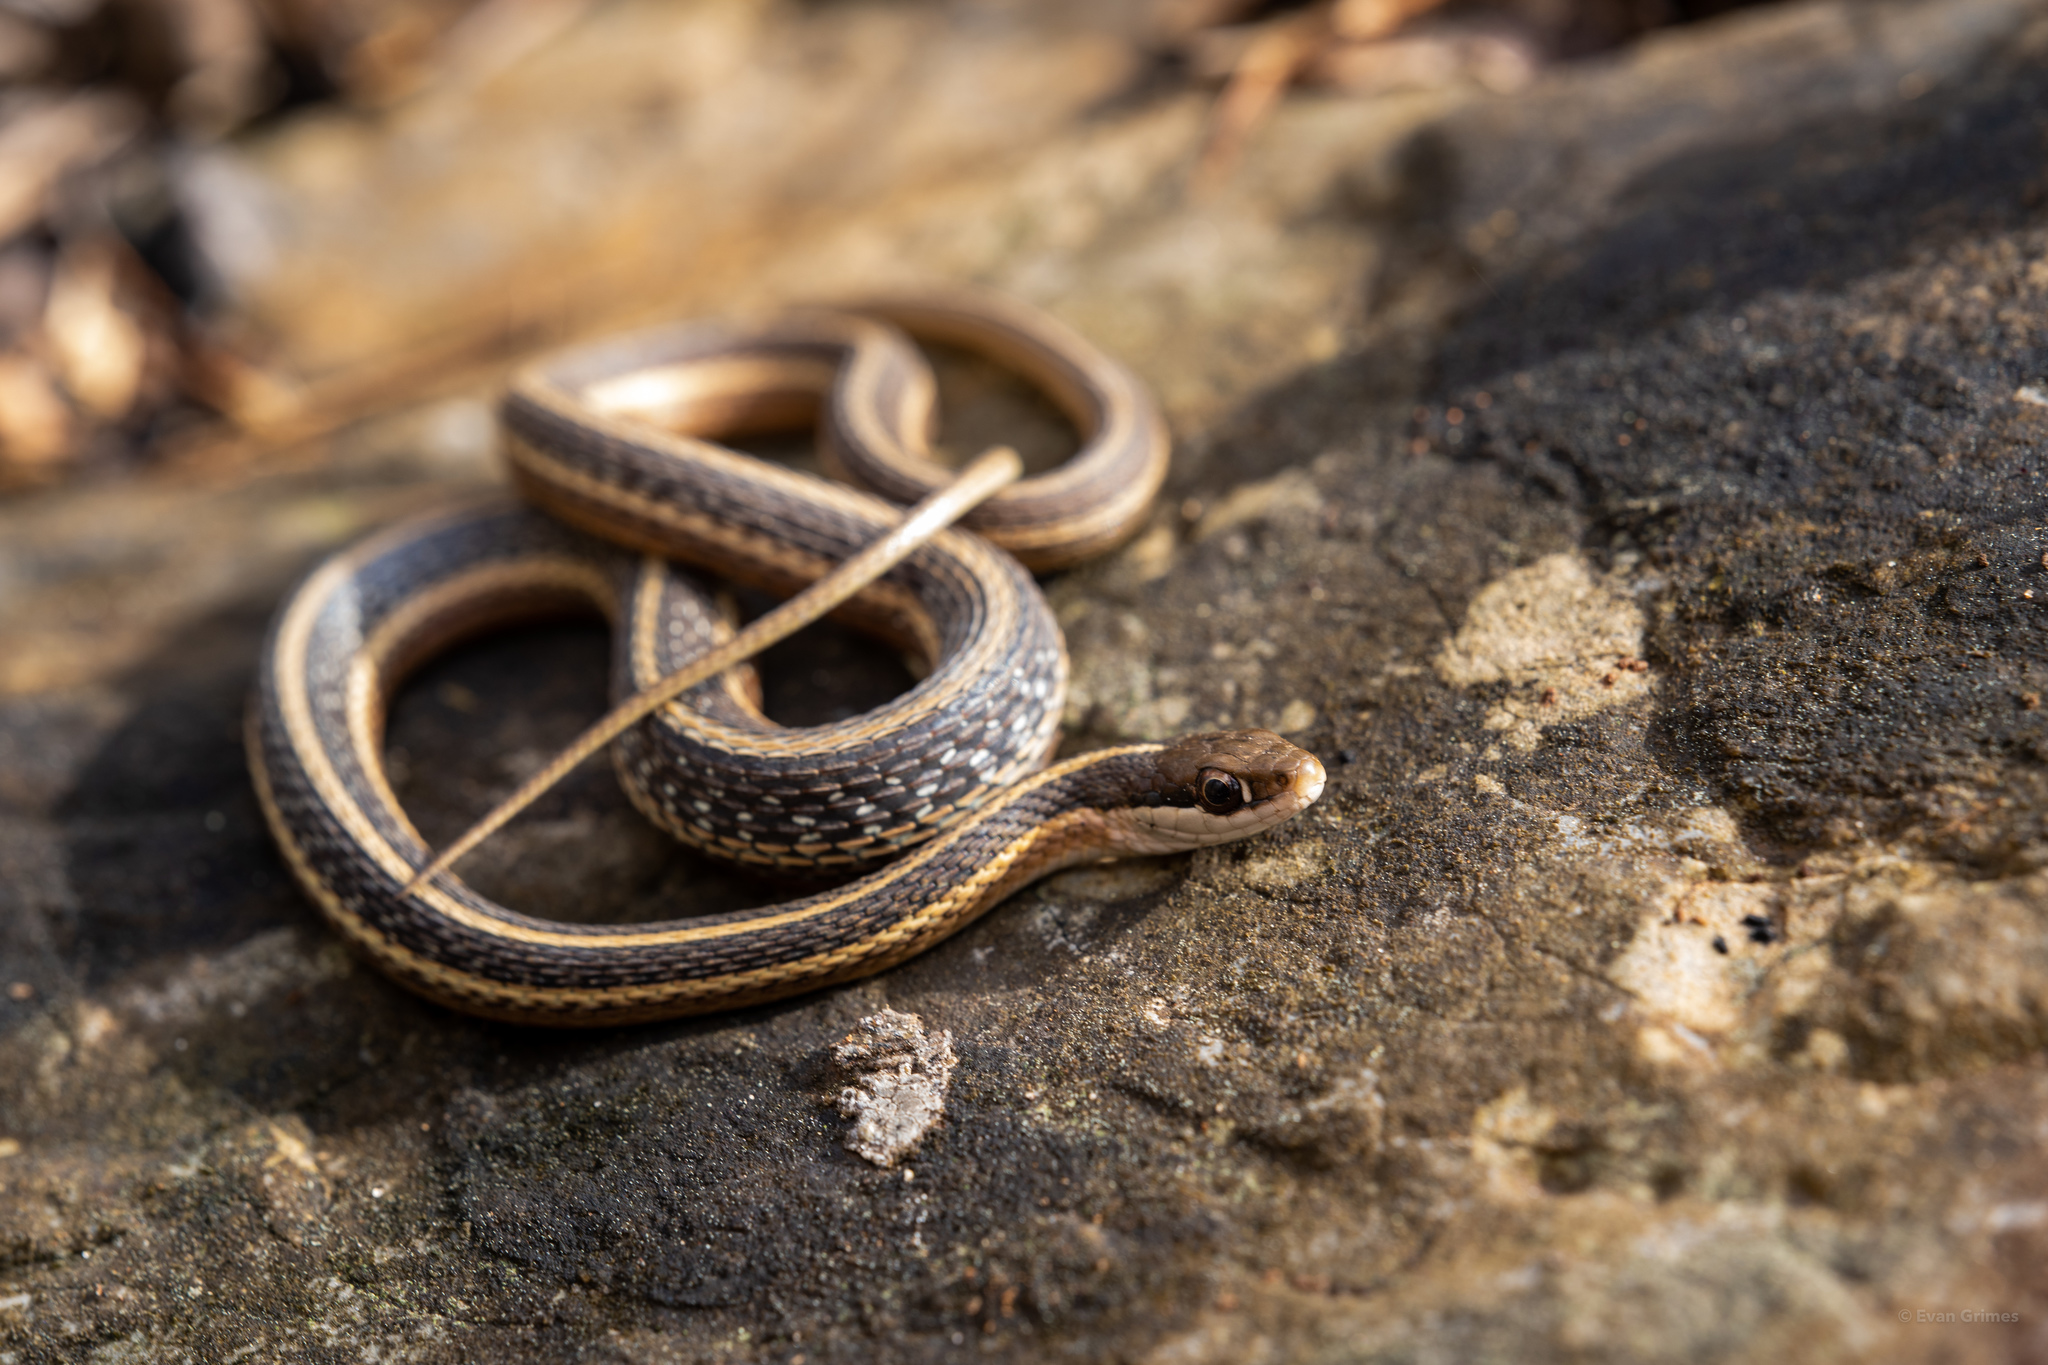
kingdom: Animalia
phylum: Chordata
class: Squamata
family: Colubridae
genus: Thamnophis
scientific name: Thamnophis saurita
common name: Eastern ribbonsnake
